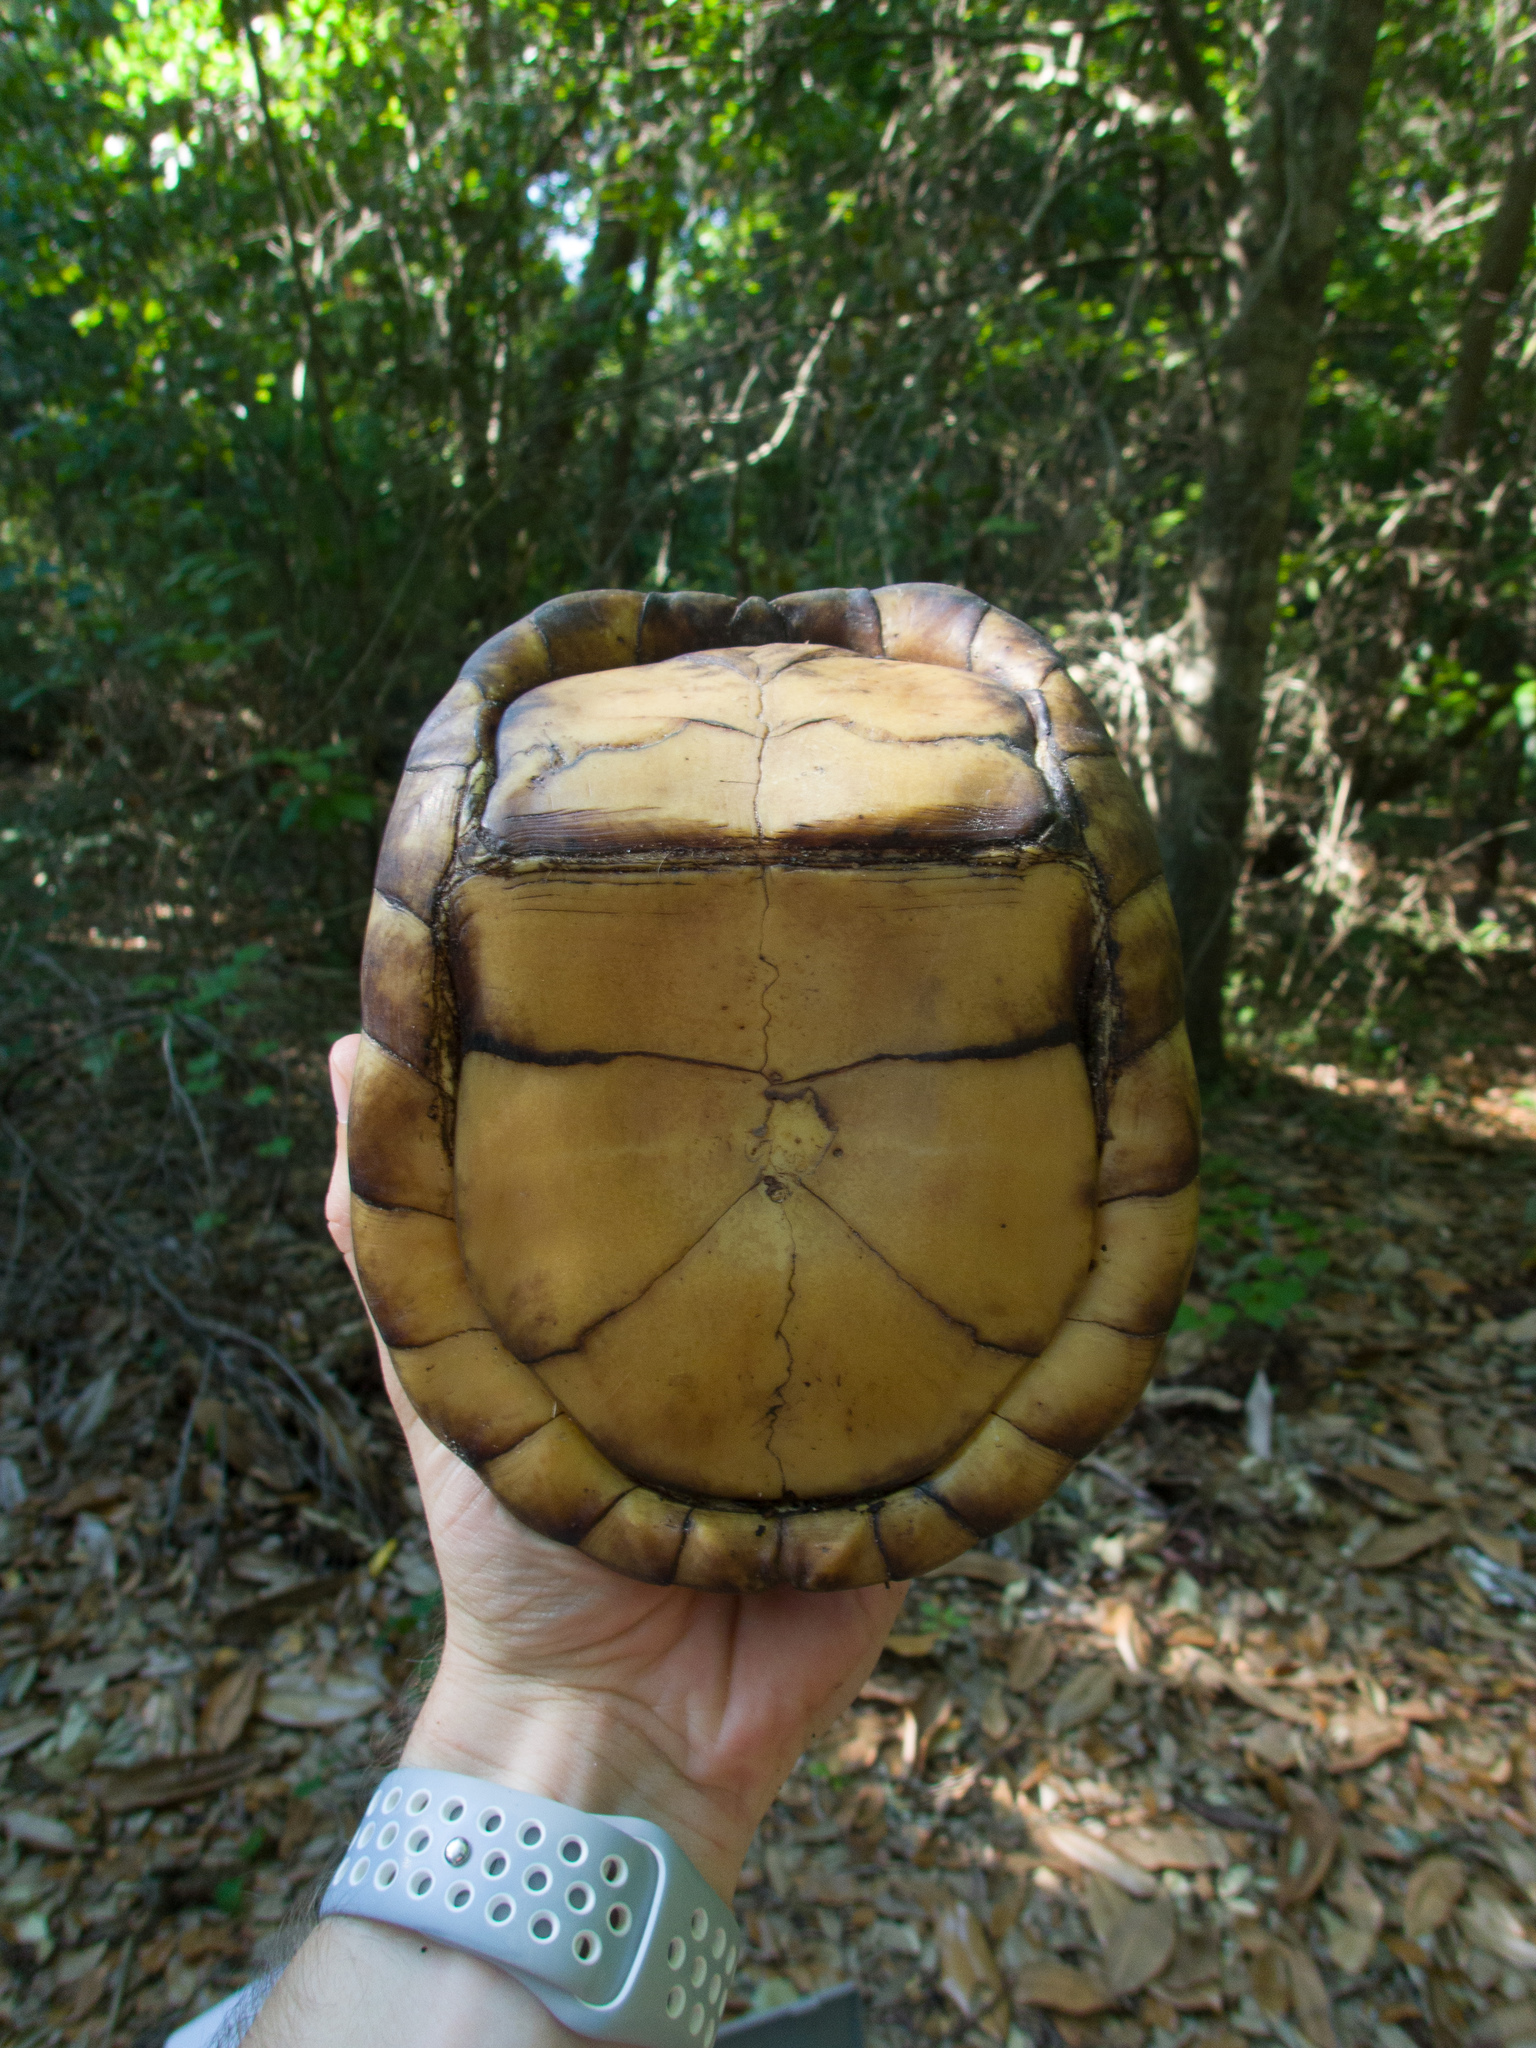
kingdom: Animalia
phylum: Chordata
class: Testudines
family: Emydidae
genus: Terrapene
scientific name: Terrapene carolina
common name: Common box turtle
